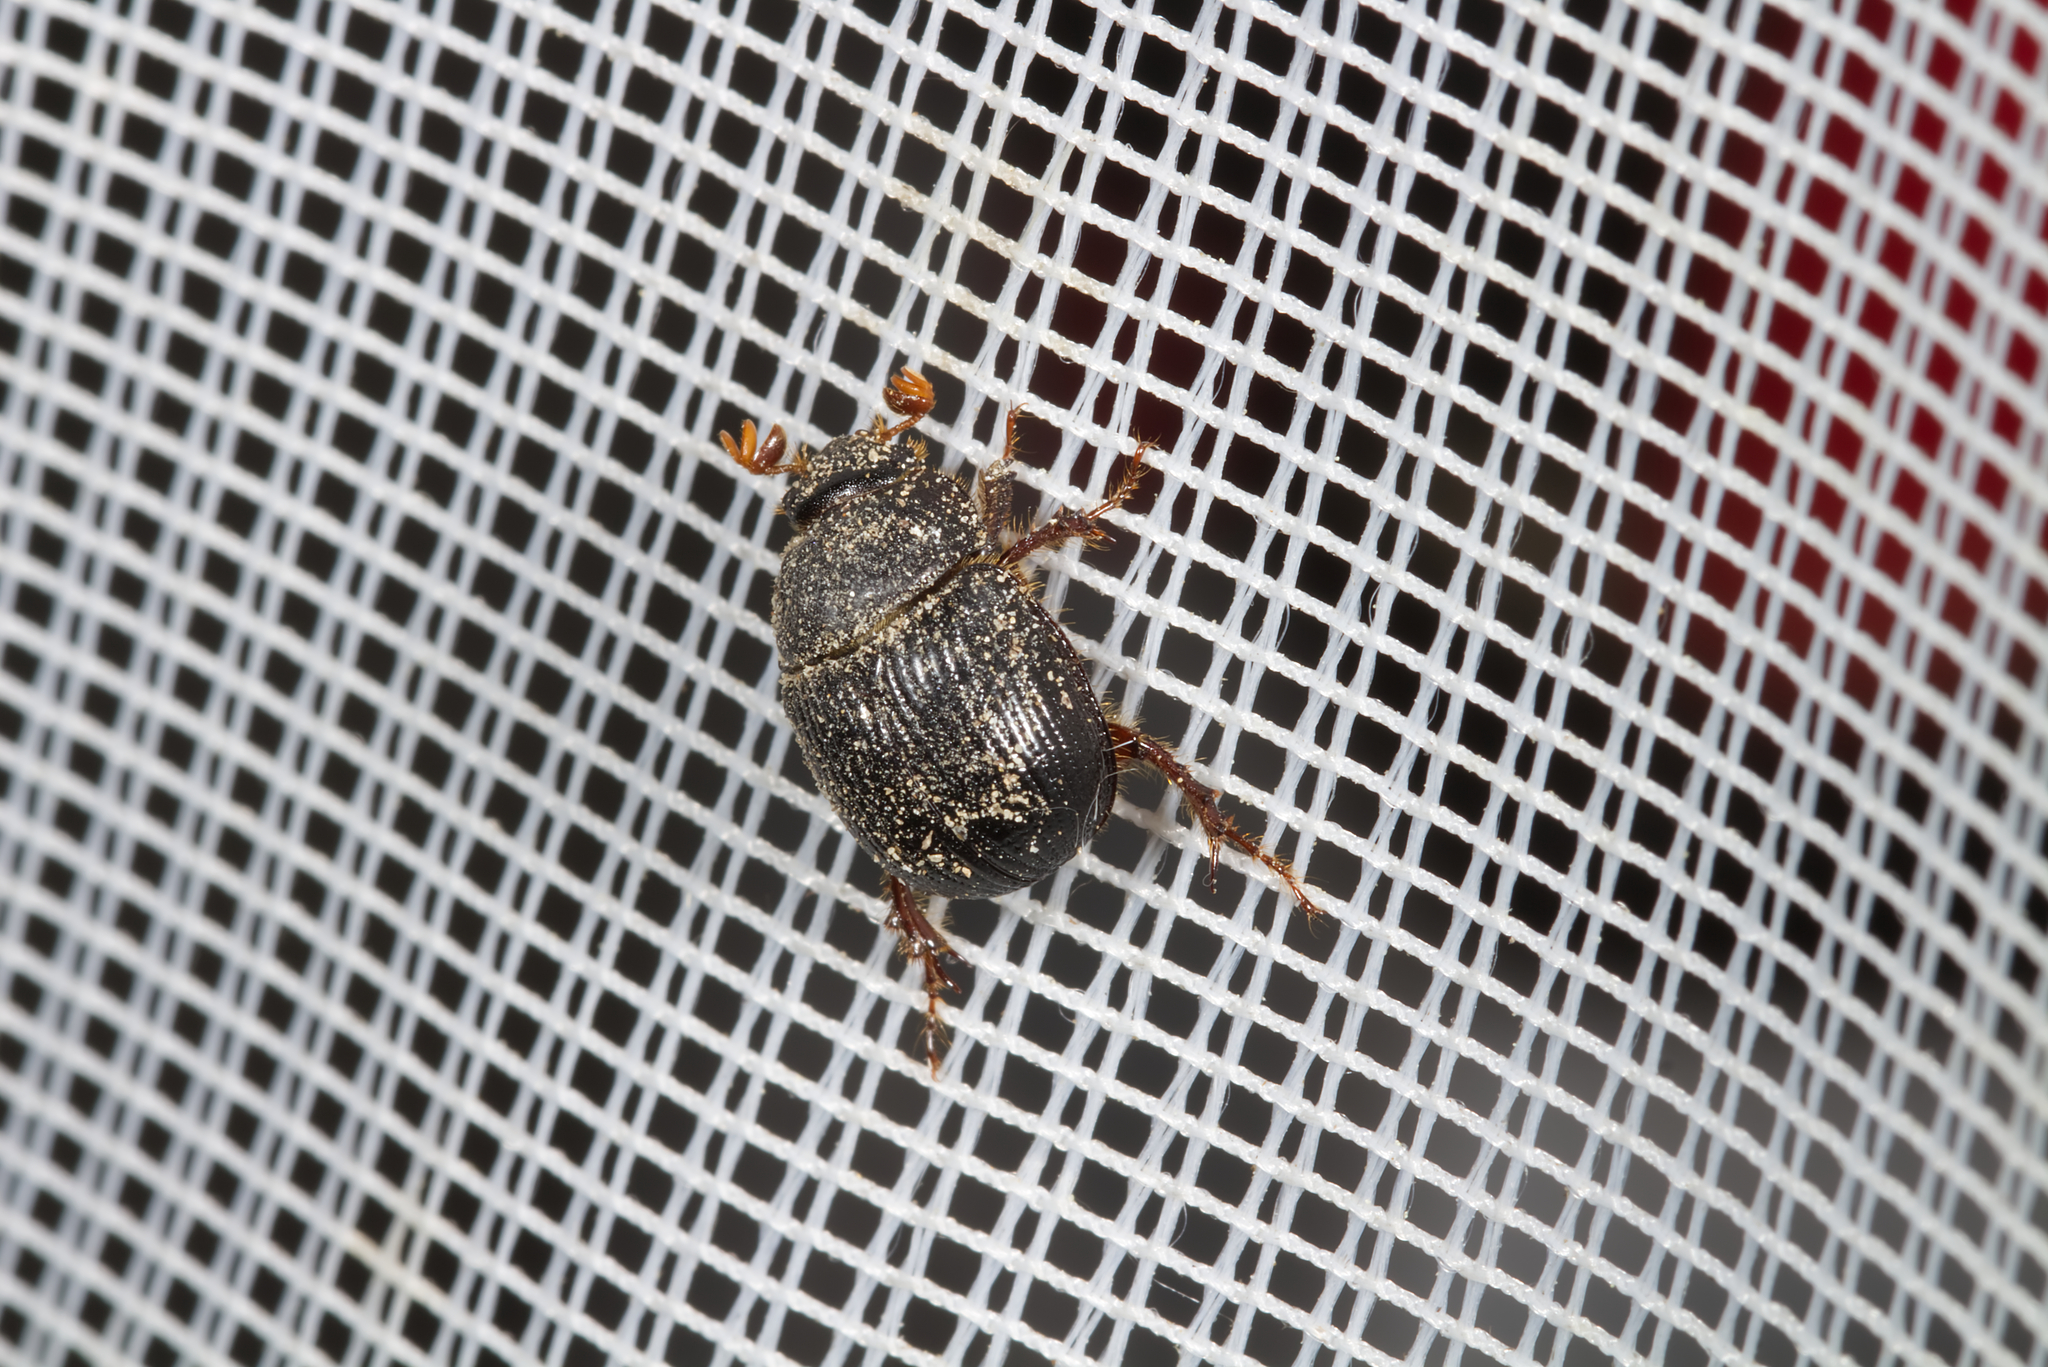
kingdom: Animalia
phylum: Arthropoda
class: Insecta
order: Coleoptera
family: Geotrupidae
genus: Odonteus
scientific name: Odonteus armiger
